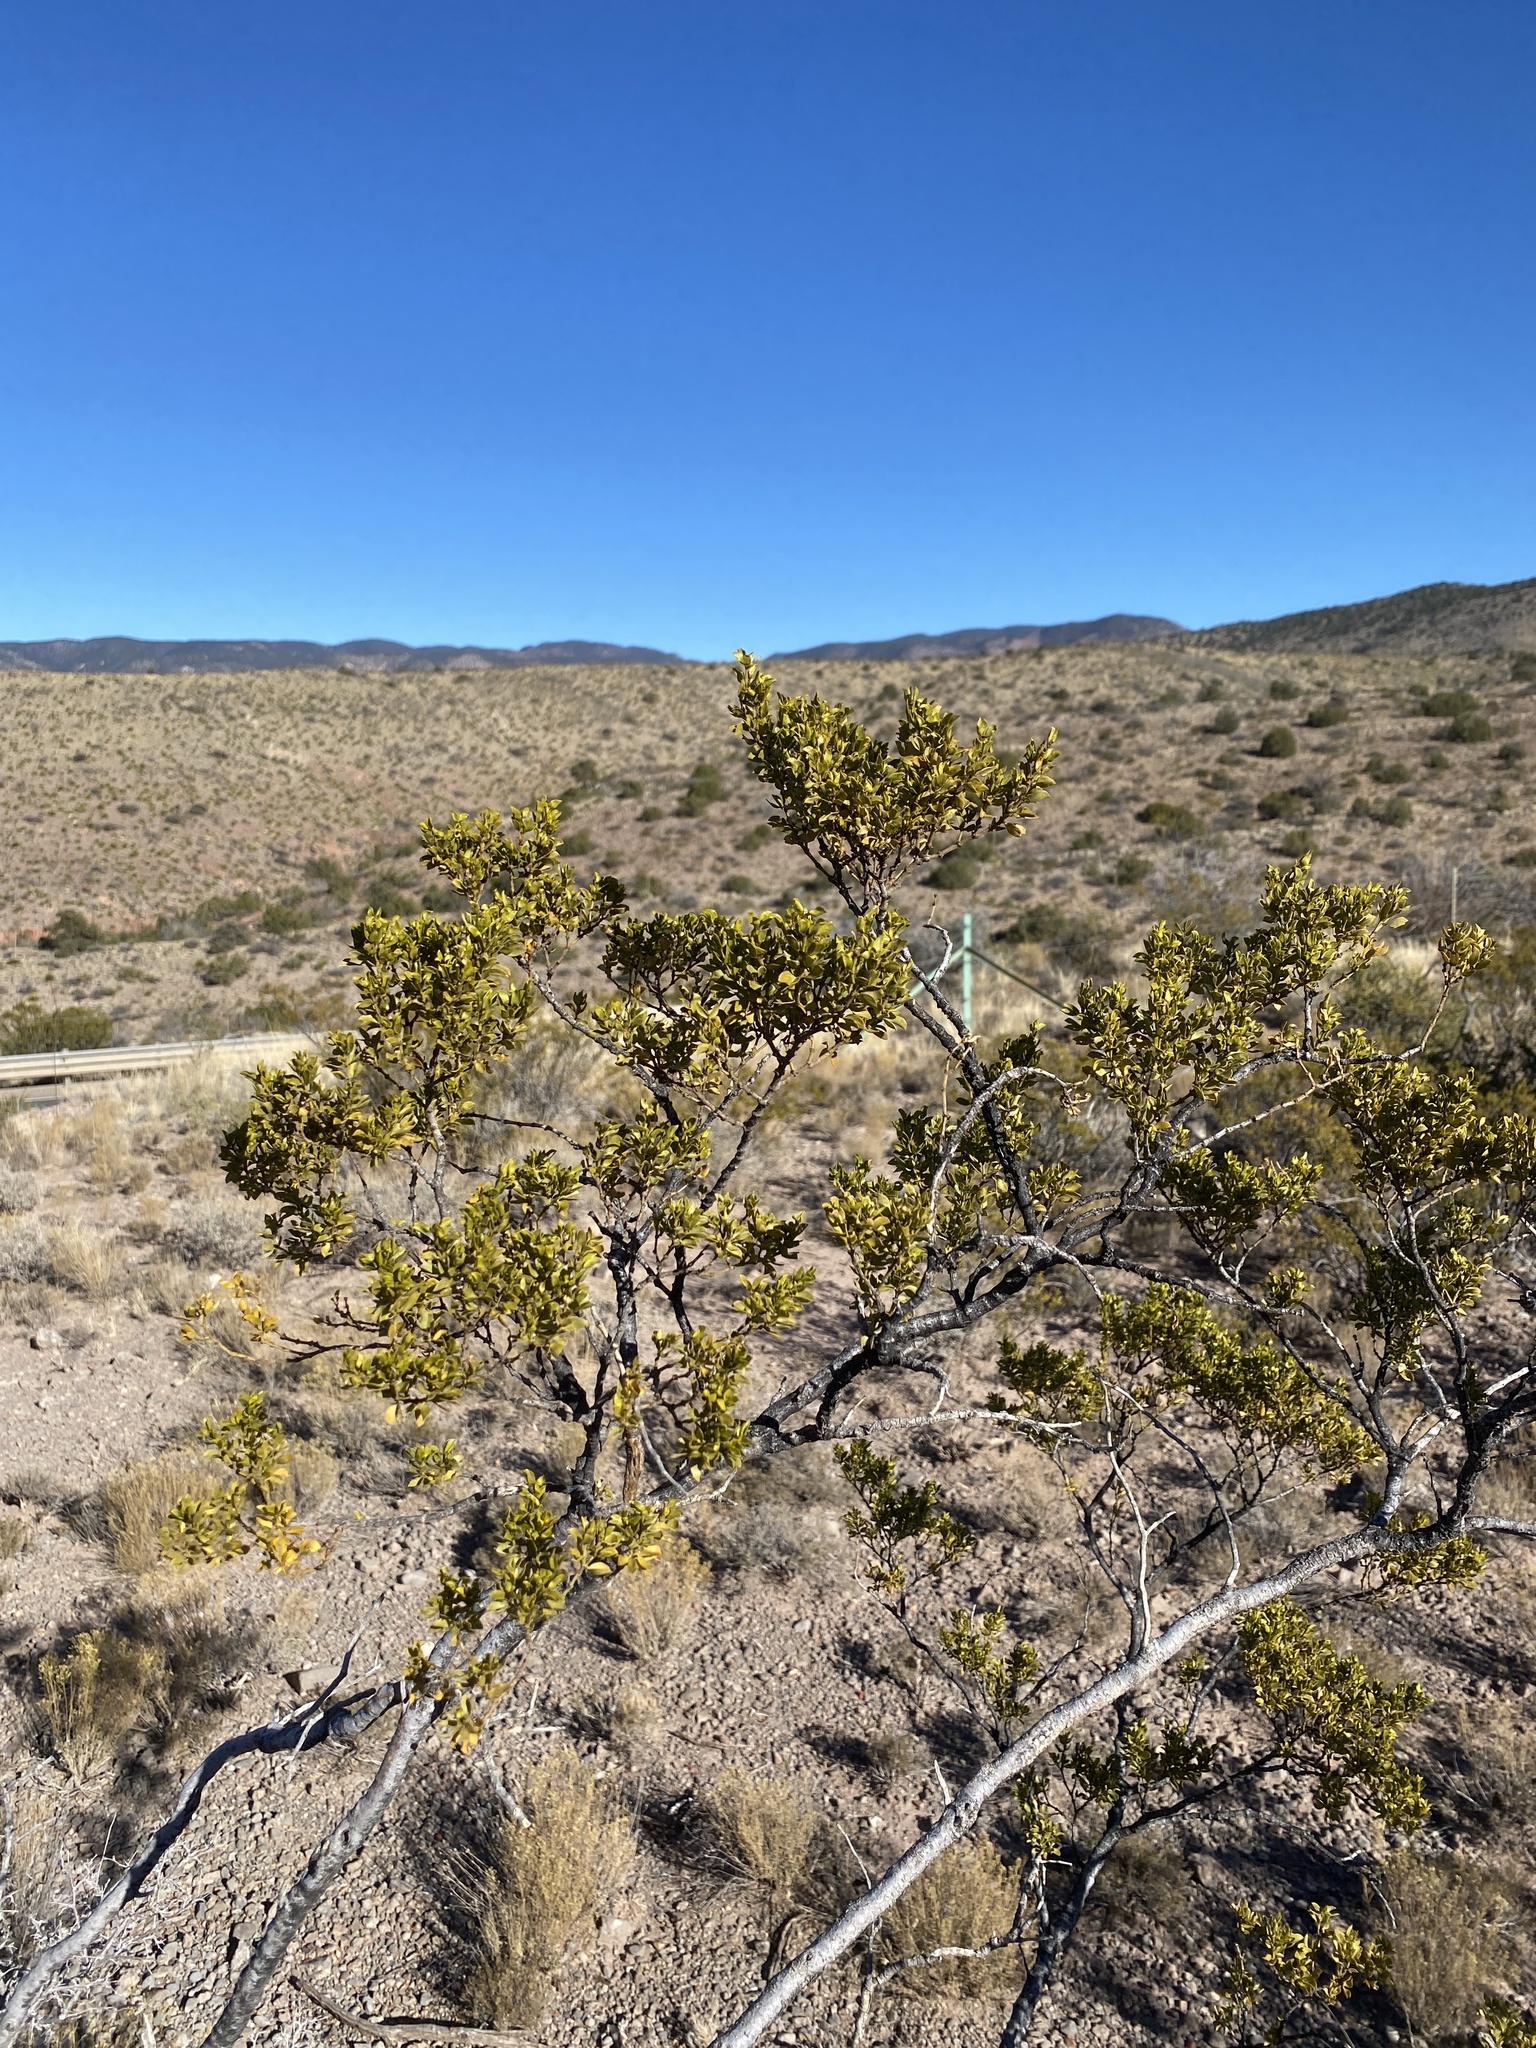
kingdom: Plantae
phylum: Tracheophyta
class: Magnoliopsida
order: Zygophyllales
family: Zygophyllaceae
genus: Larrea
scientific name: Larrea tridentata
